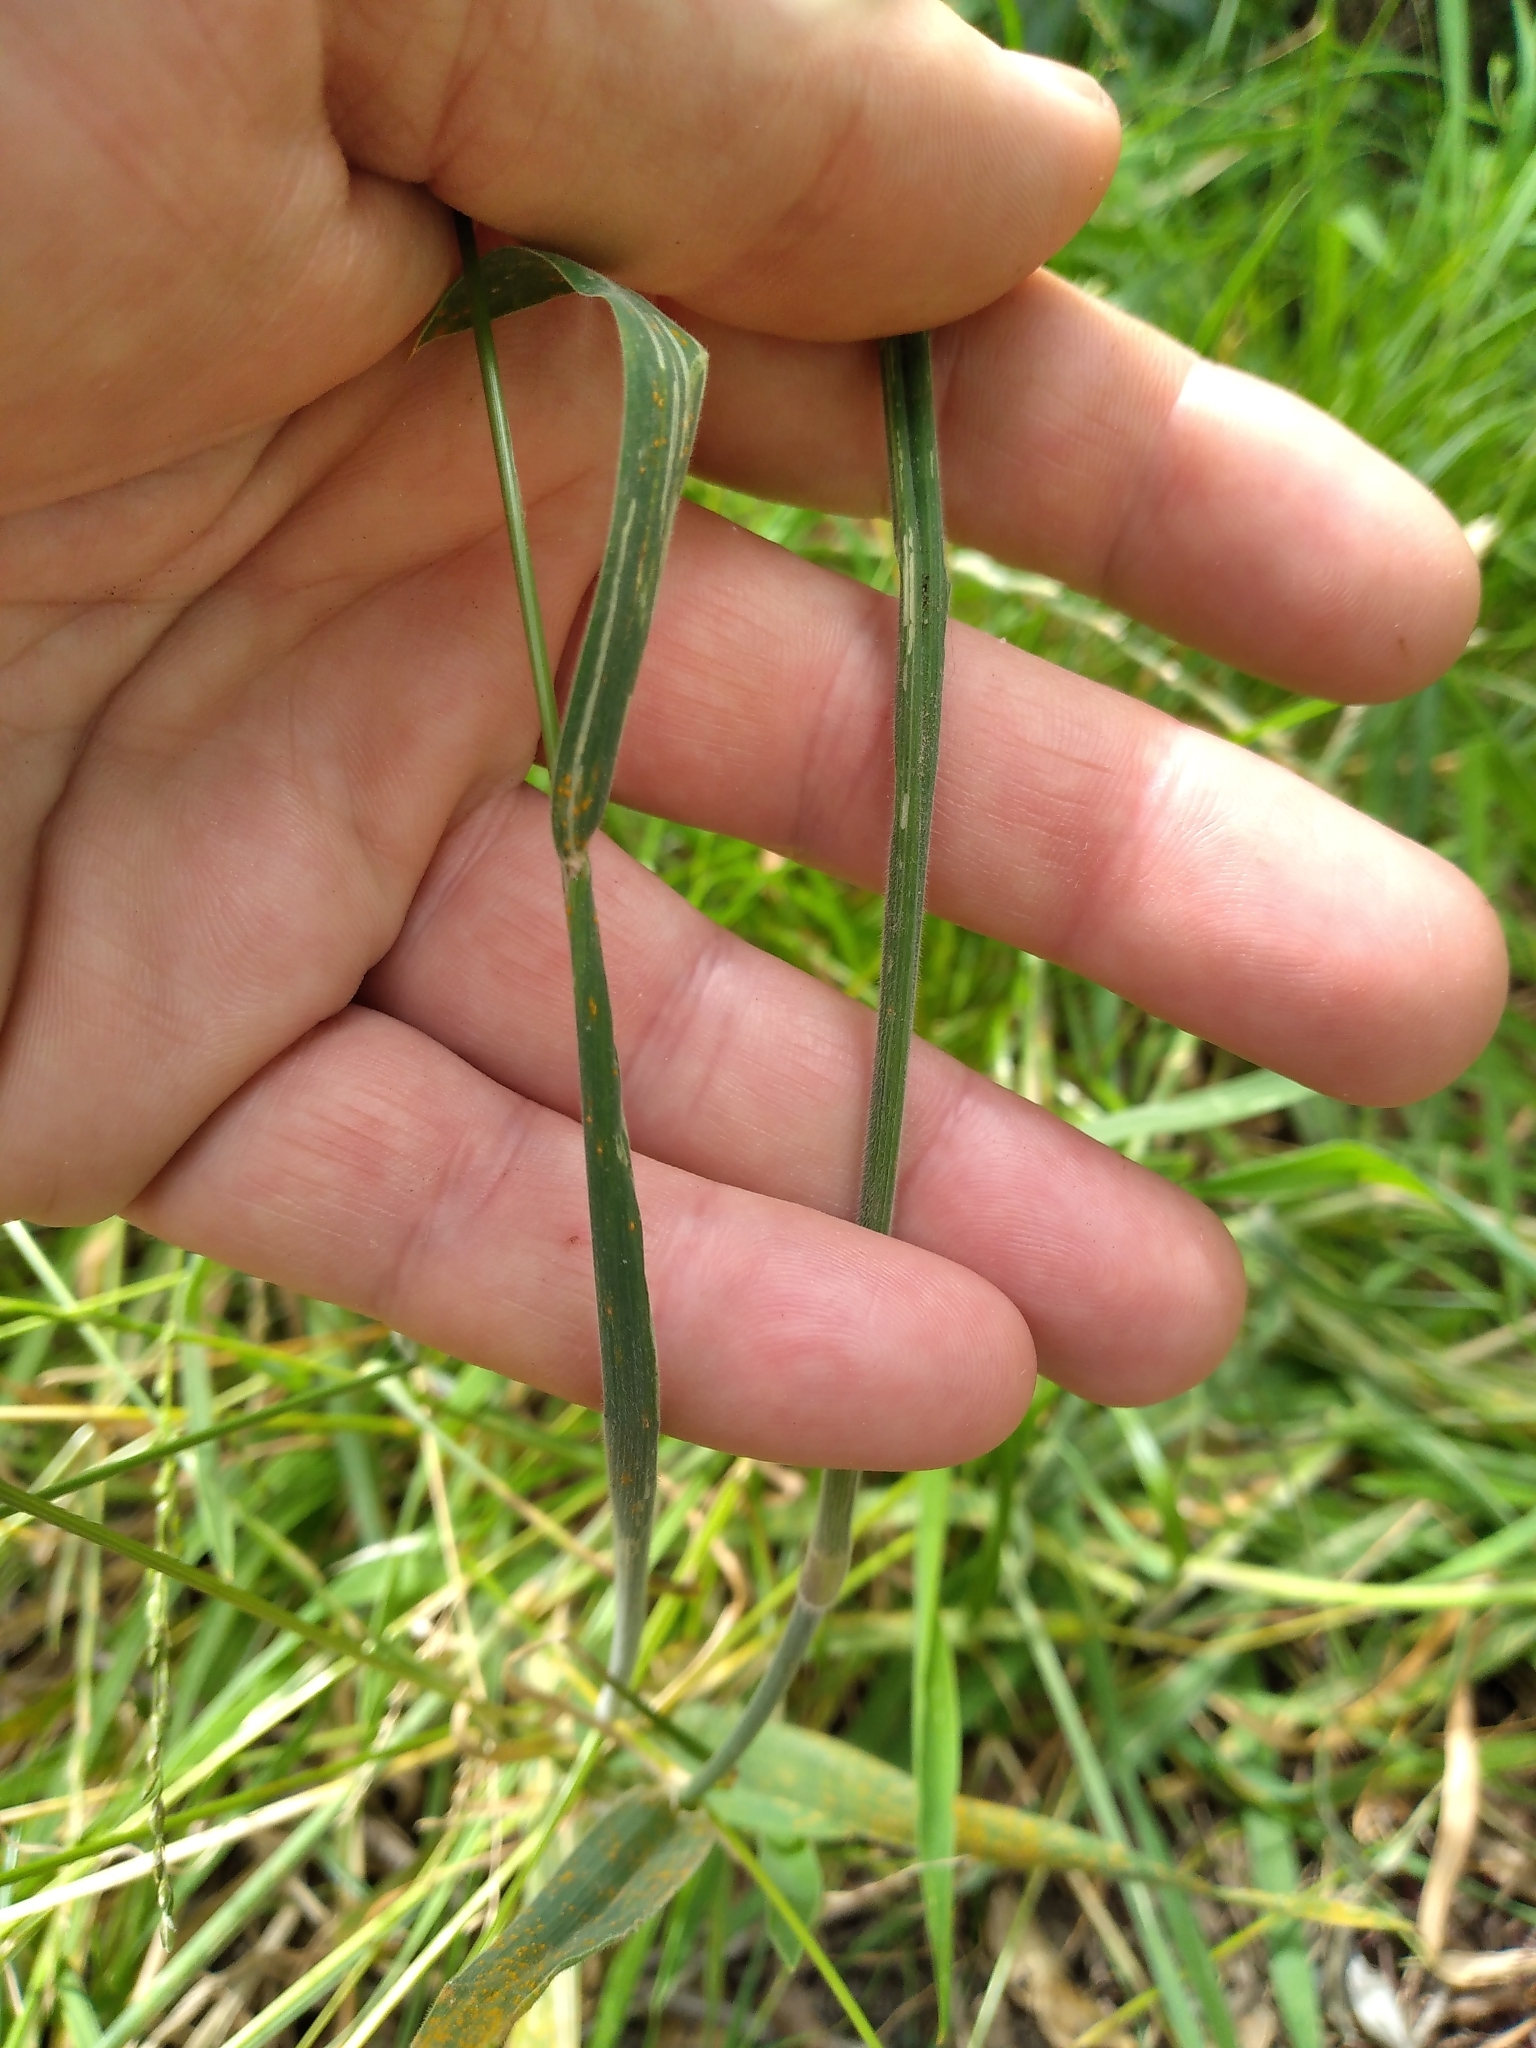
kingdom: Plantae
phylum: Tracheophyta
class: Liliopsida
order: Poales
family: Poaceae
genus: Holcus
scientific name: Holcus lanatus
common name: Yorkshire-fog
